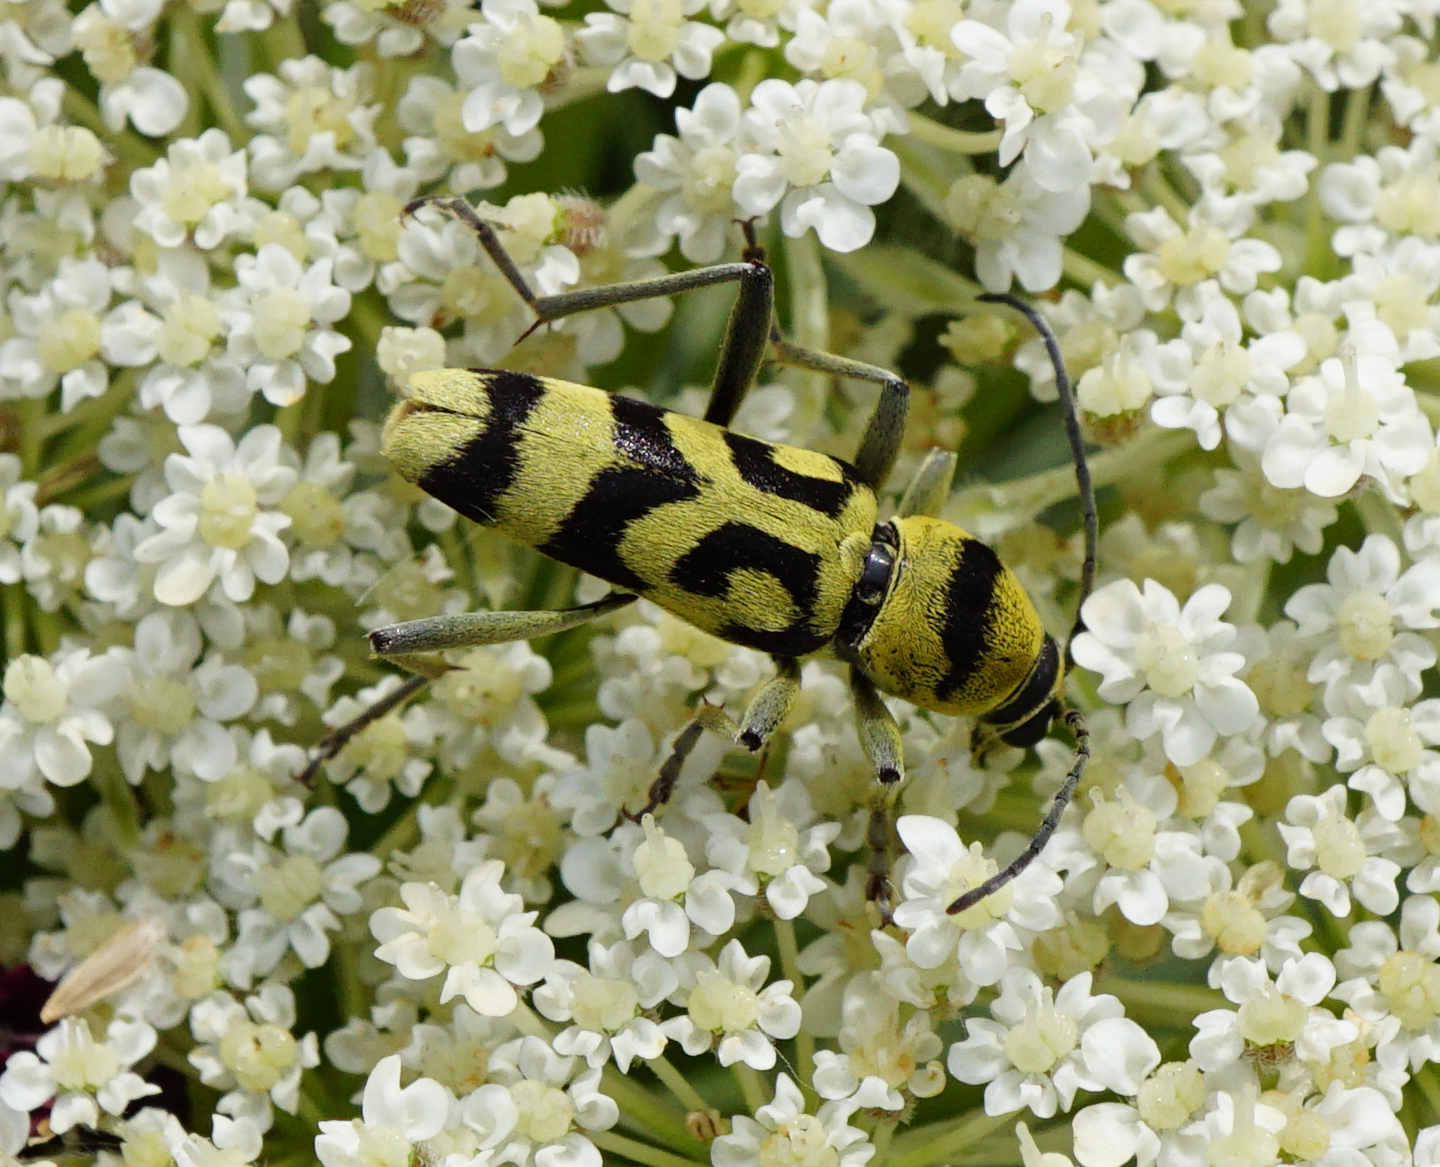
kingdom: Animalia
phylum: Arthropoda
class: Insecta
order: Coleoptera
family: Cerambycidae
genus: Chlorophorus
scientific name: Chlorophorus varius
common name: Grape wood borer
